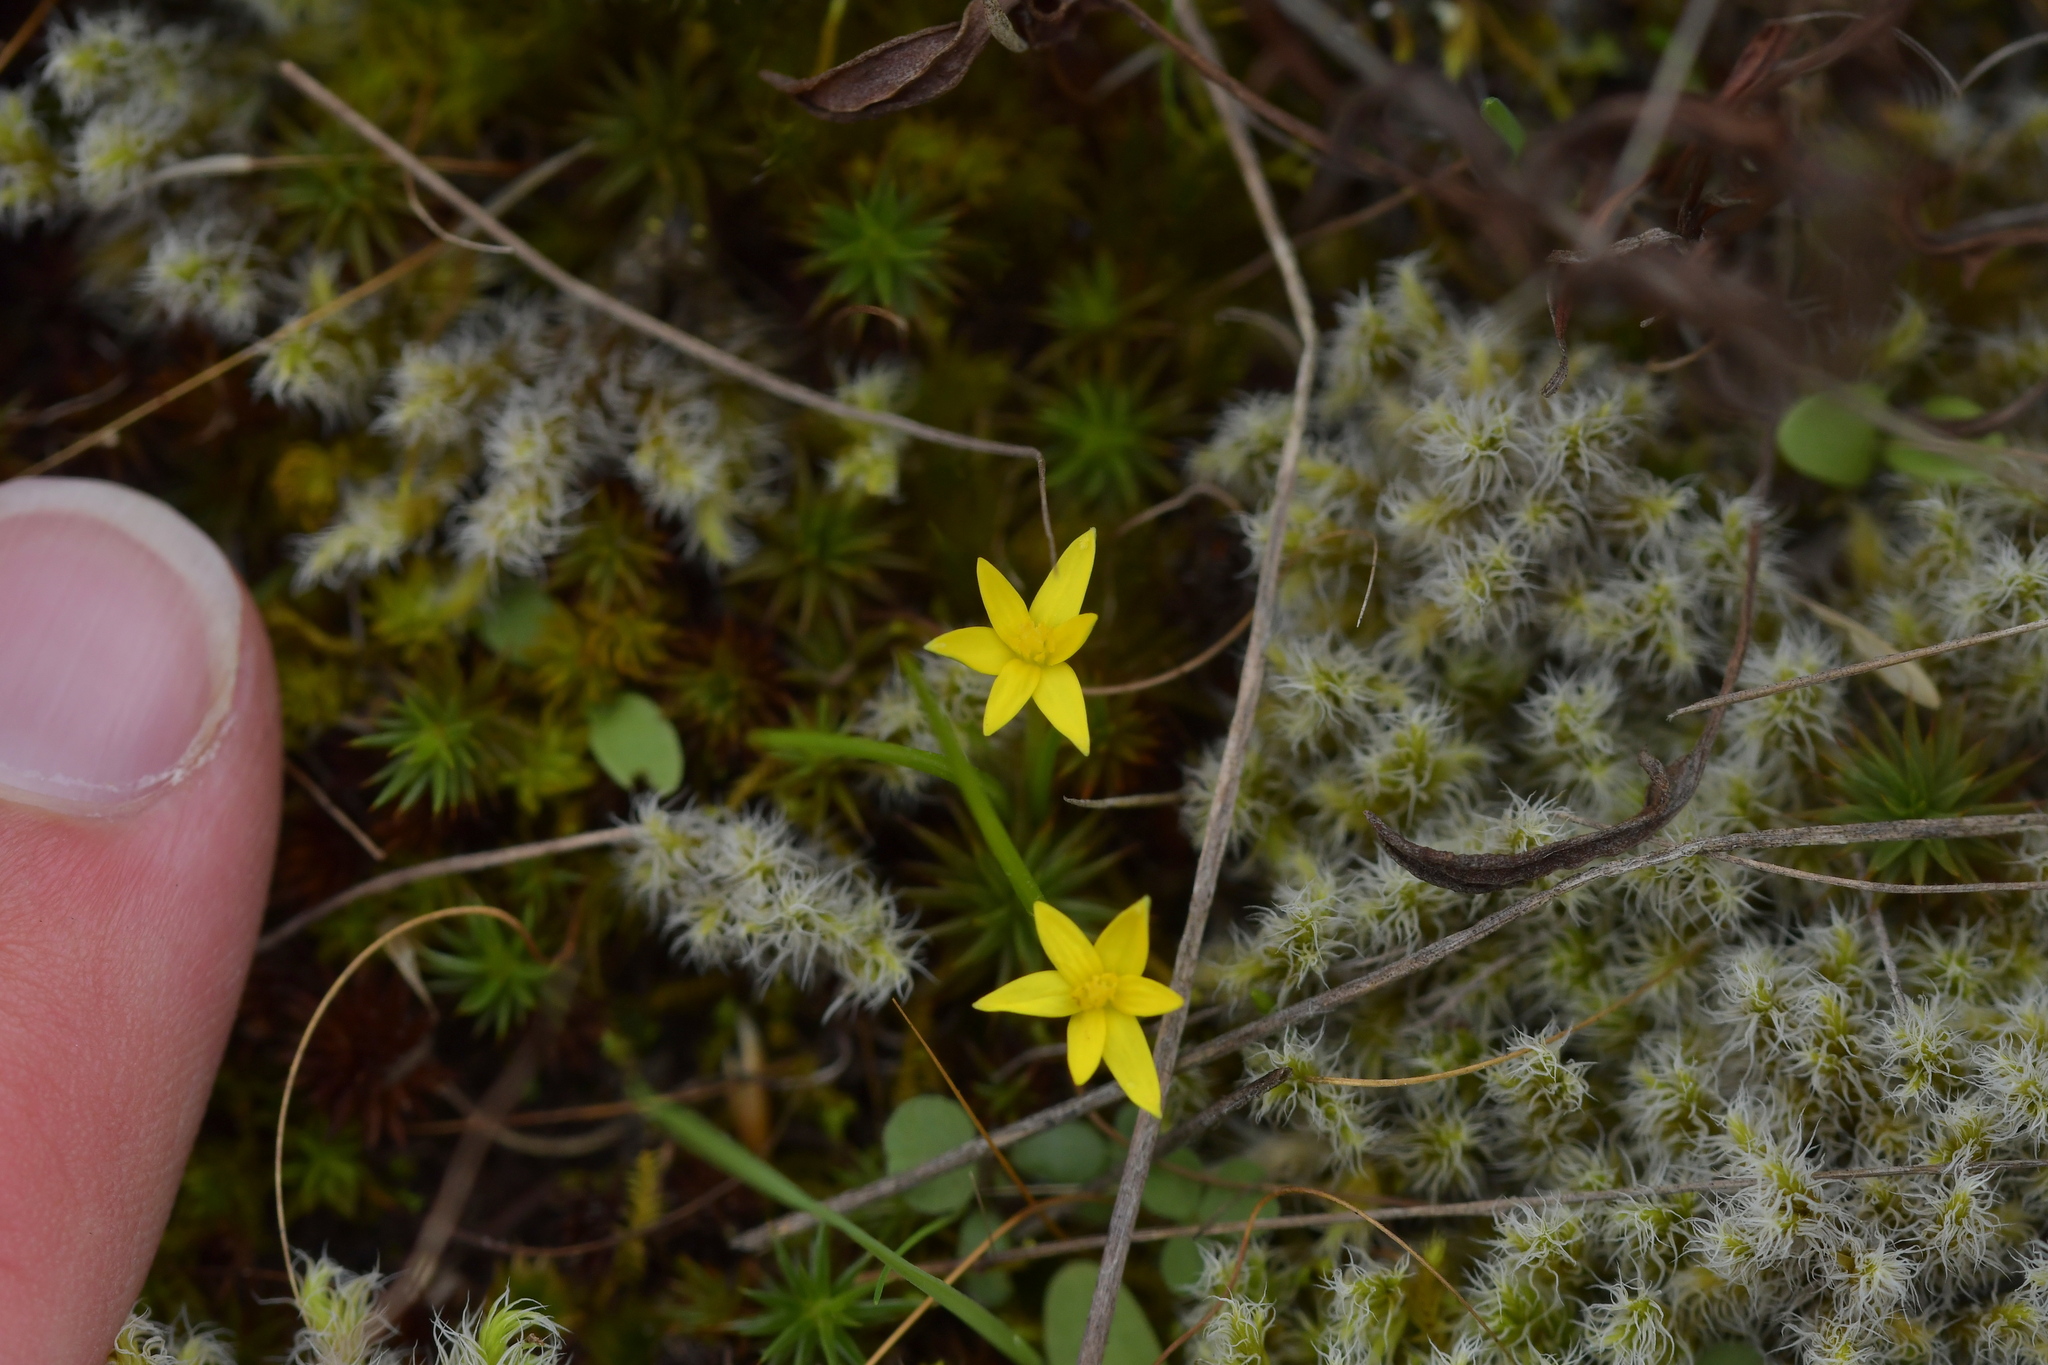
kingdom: Plantae
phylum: Tracheophyta
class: Liliopsida
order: Asparagales
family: Hypoxidaceae
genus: Pauridia
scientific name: Pauridia glabella
